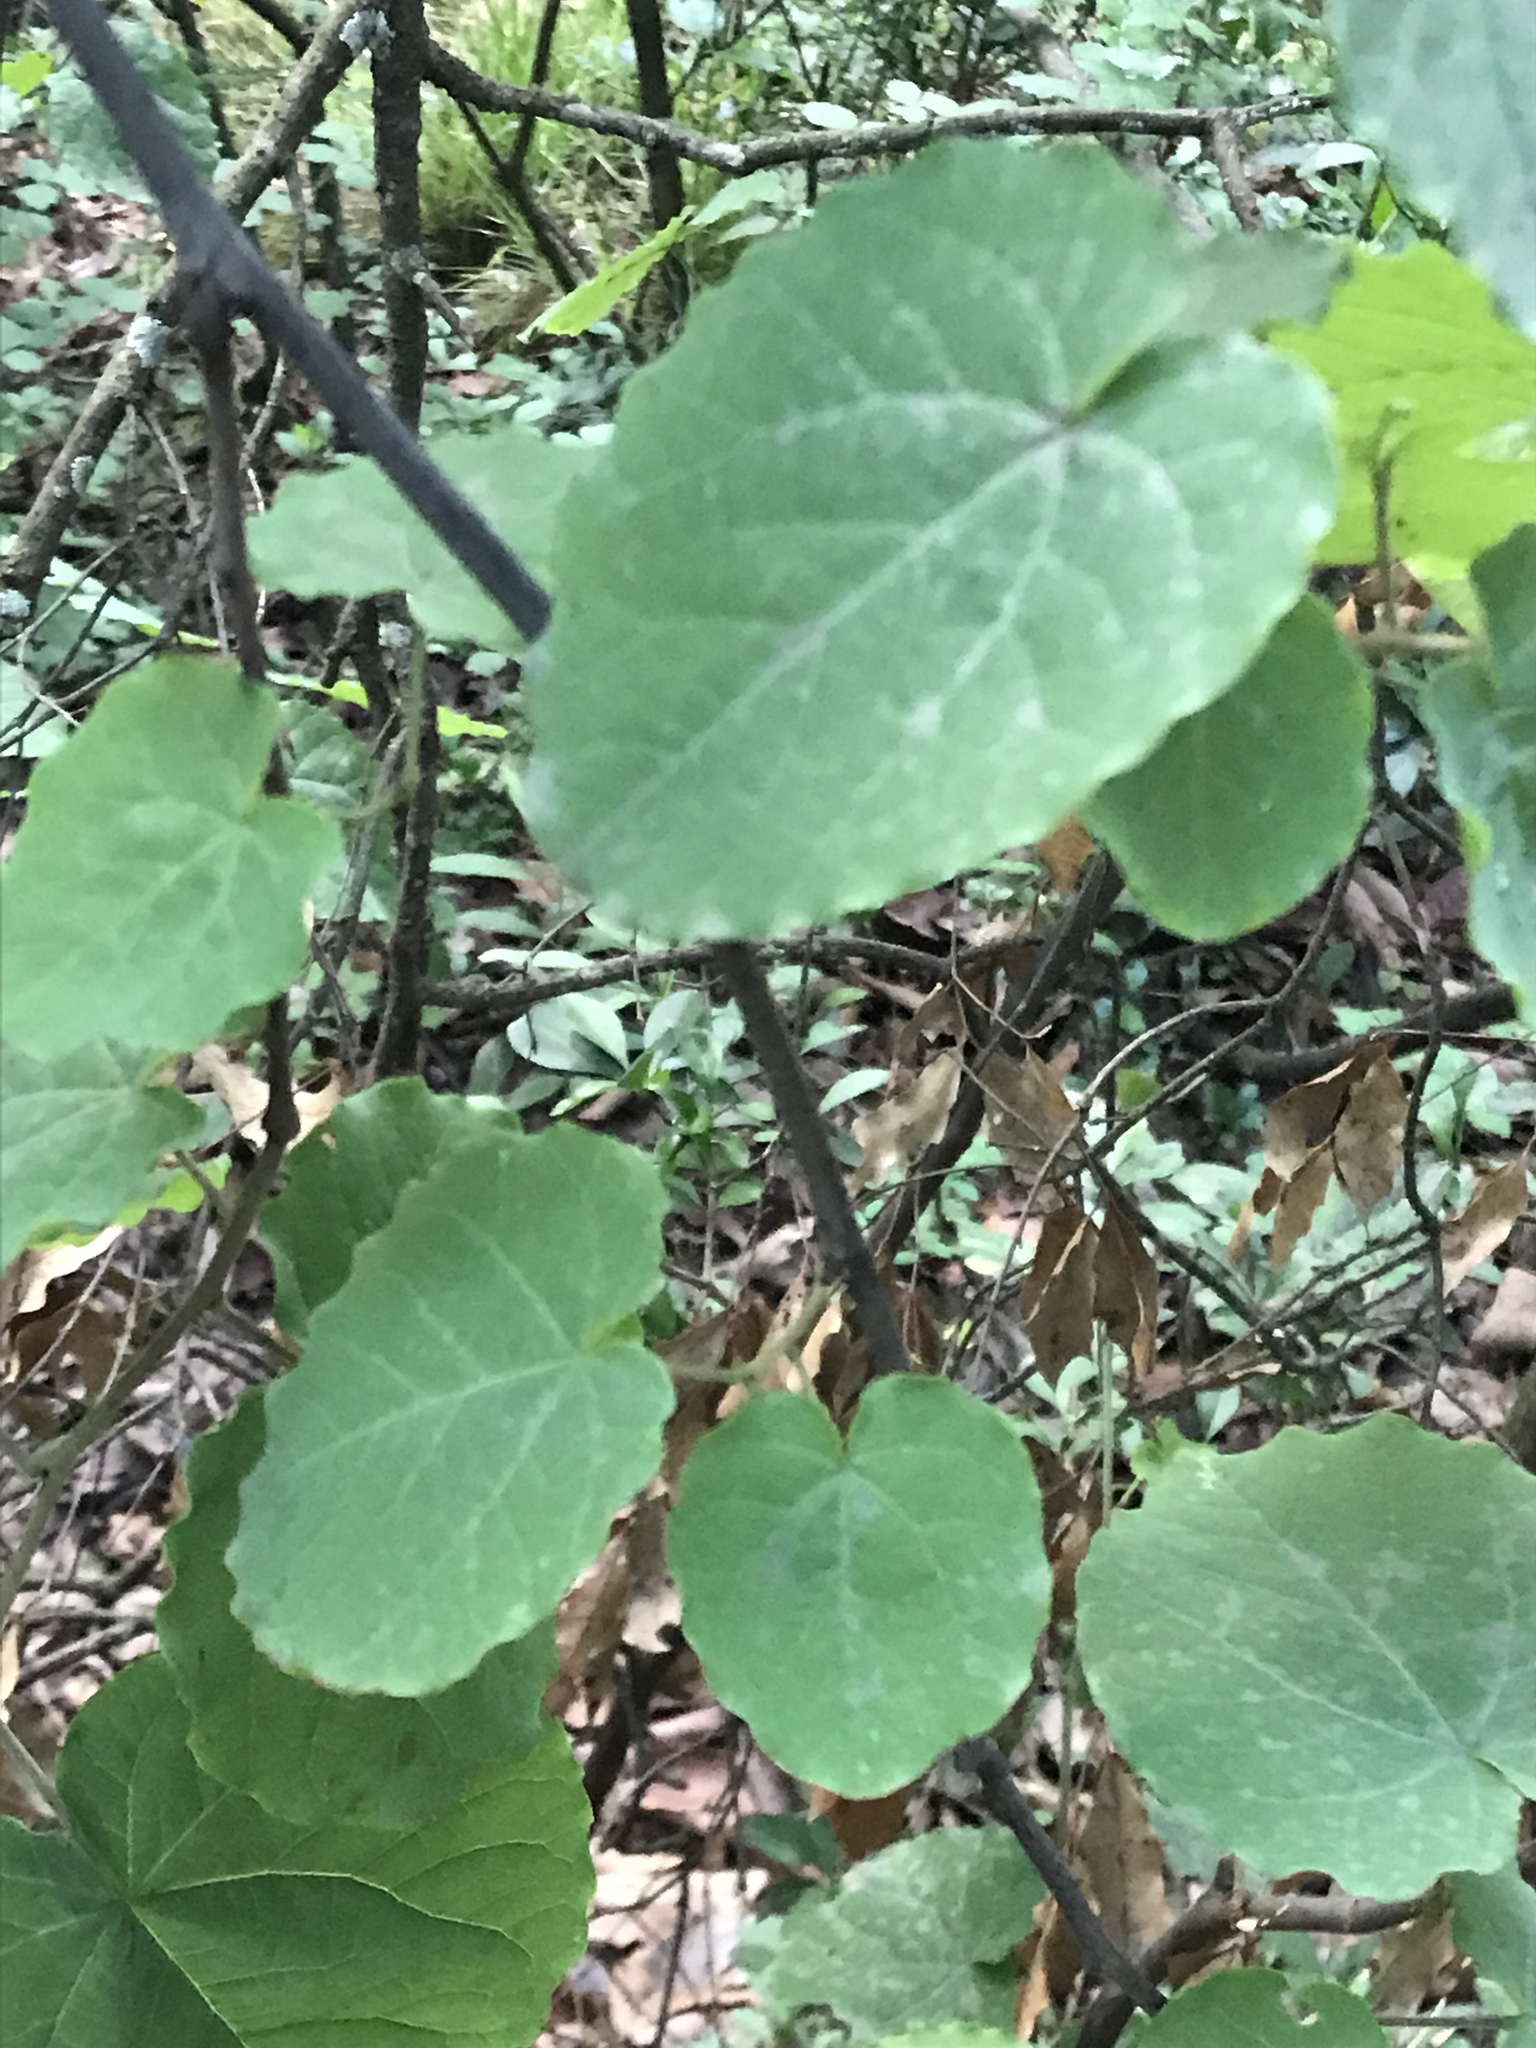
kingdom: Plantae
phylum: Tracheophyta
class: Magnoliopsida
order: Fabales
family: Fabaceae
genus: Cercis
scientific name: Cercis canadensis
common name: Eastern redbud
